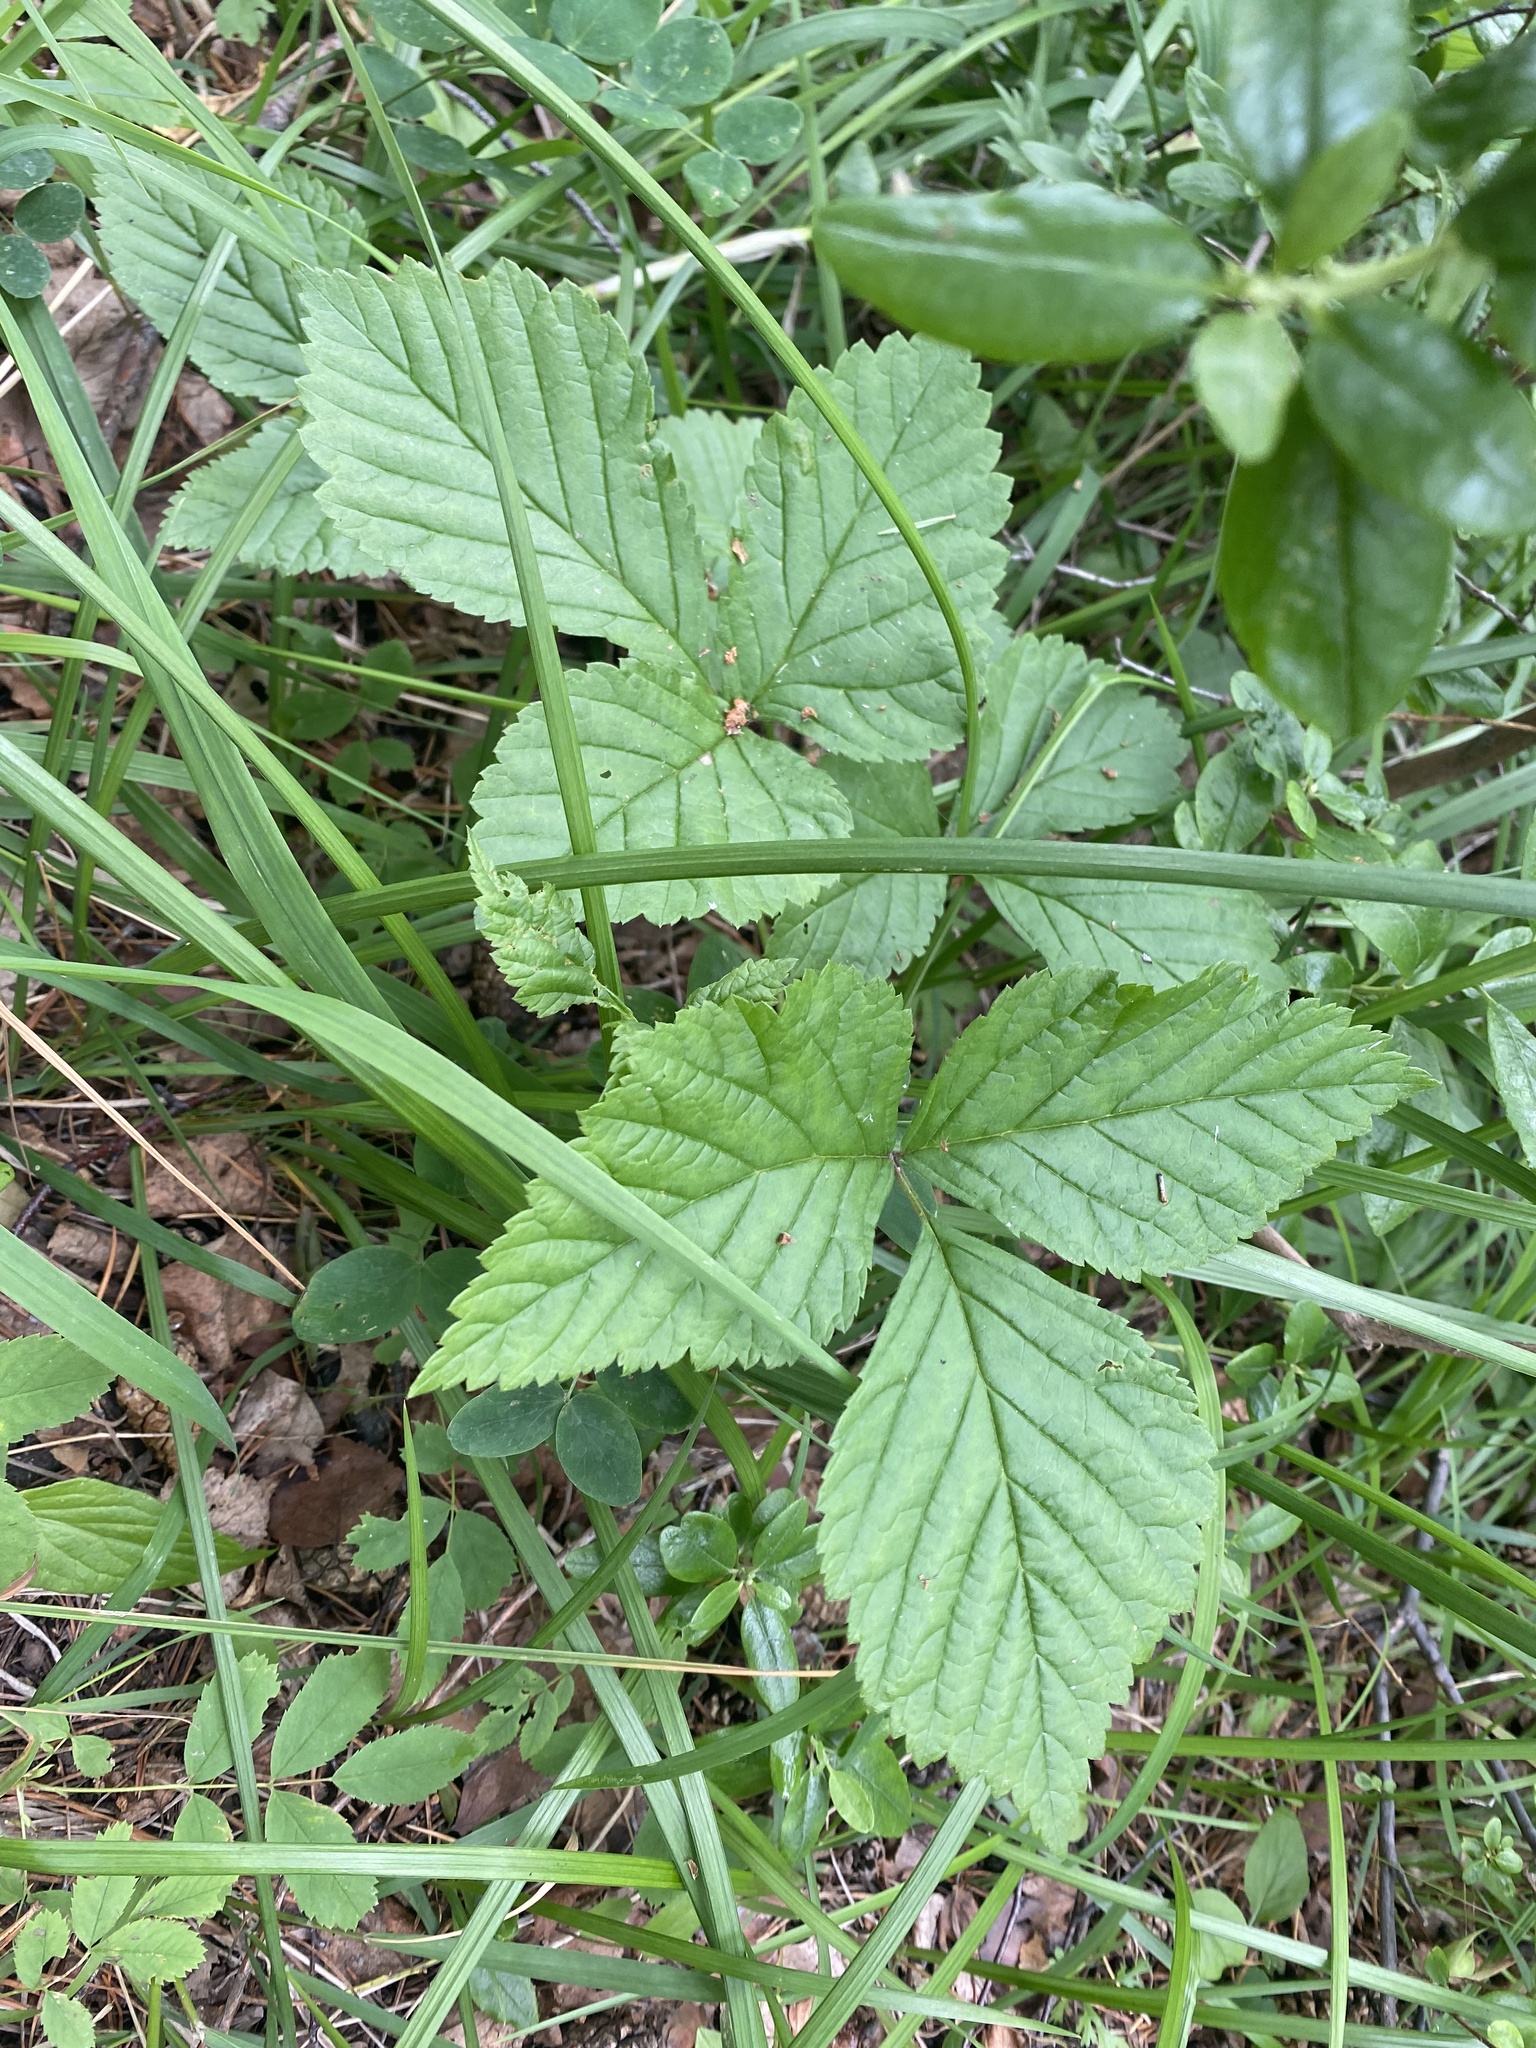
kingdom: Plantae
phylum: Tracheophyta
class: Magnoliopsida
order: Rosales
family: Rosaceae
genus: Rubus
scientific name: Rubus saxatilis
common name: Stone bramble
